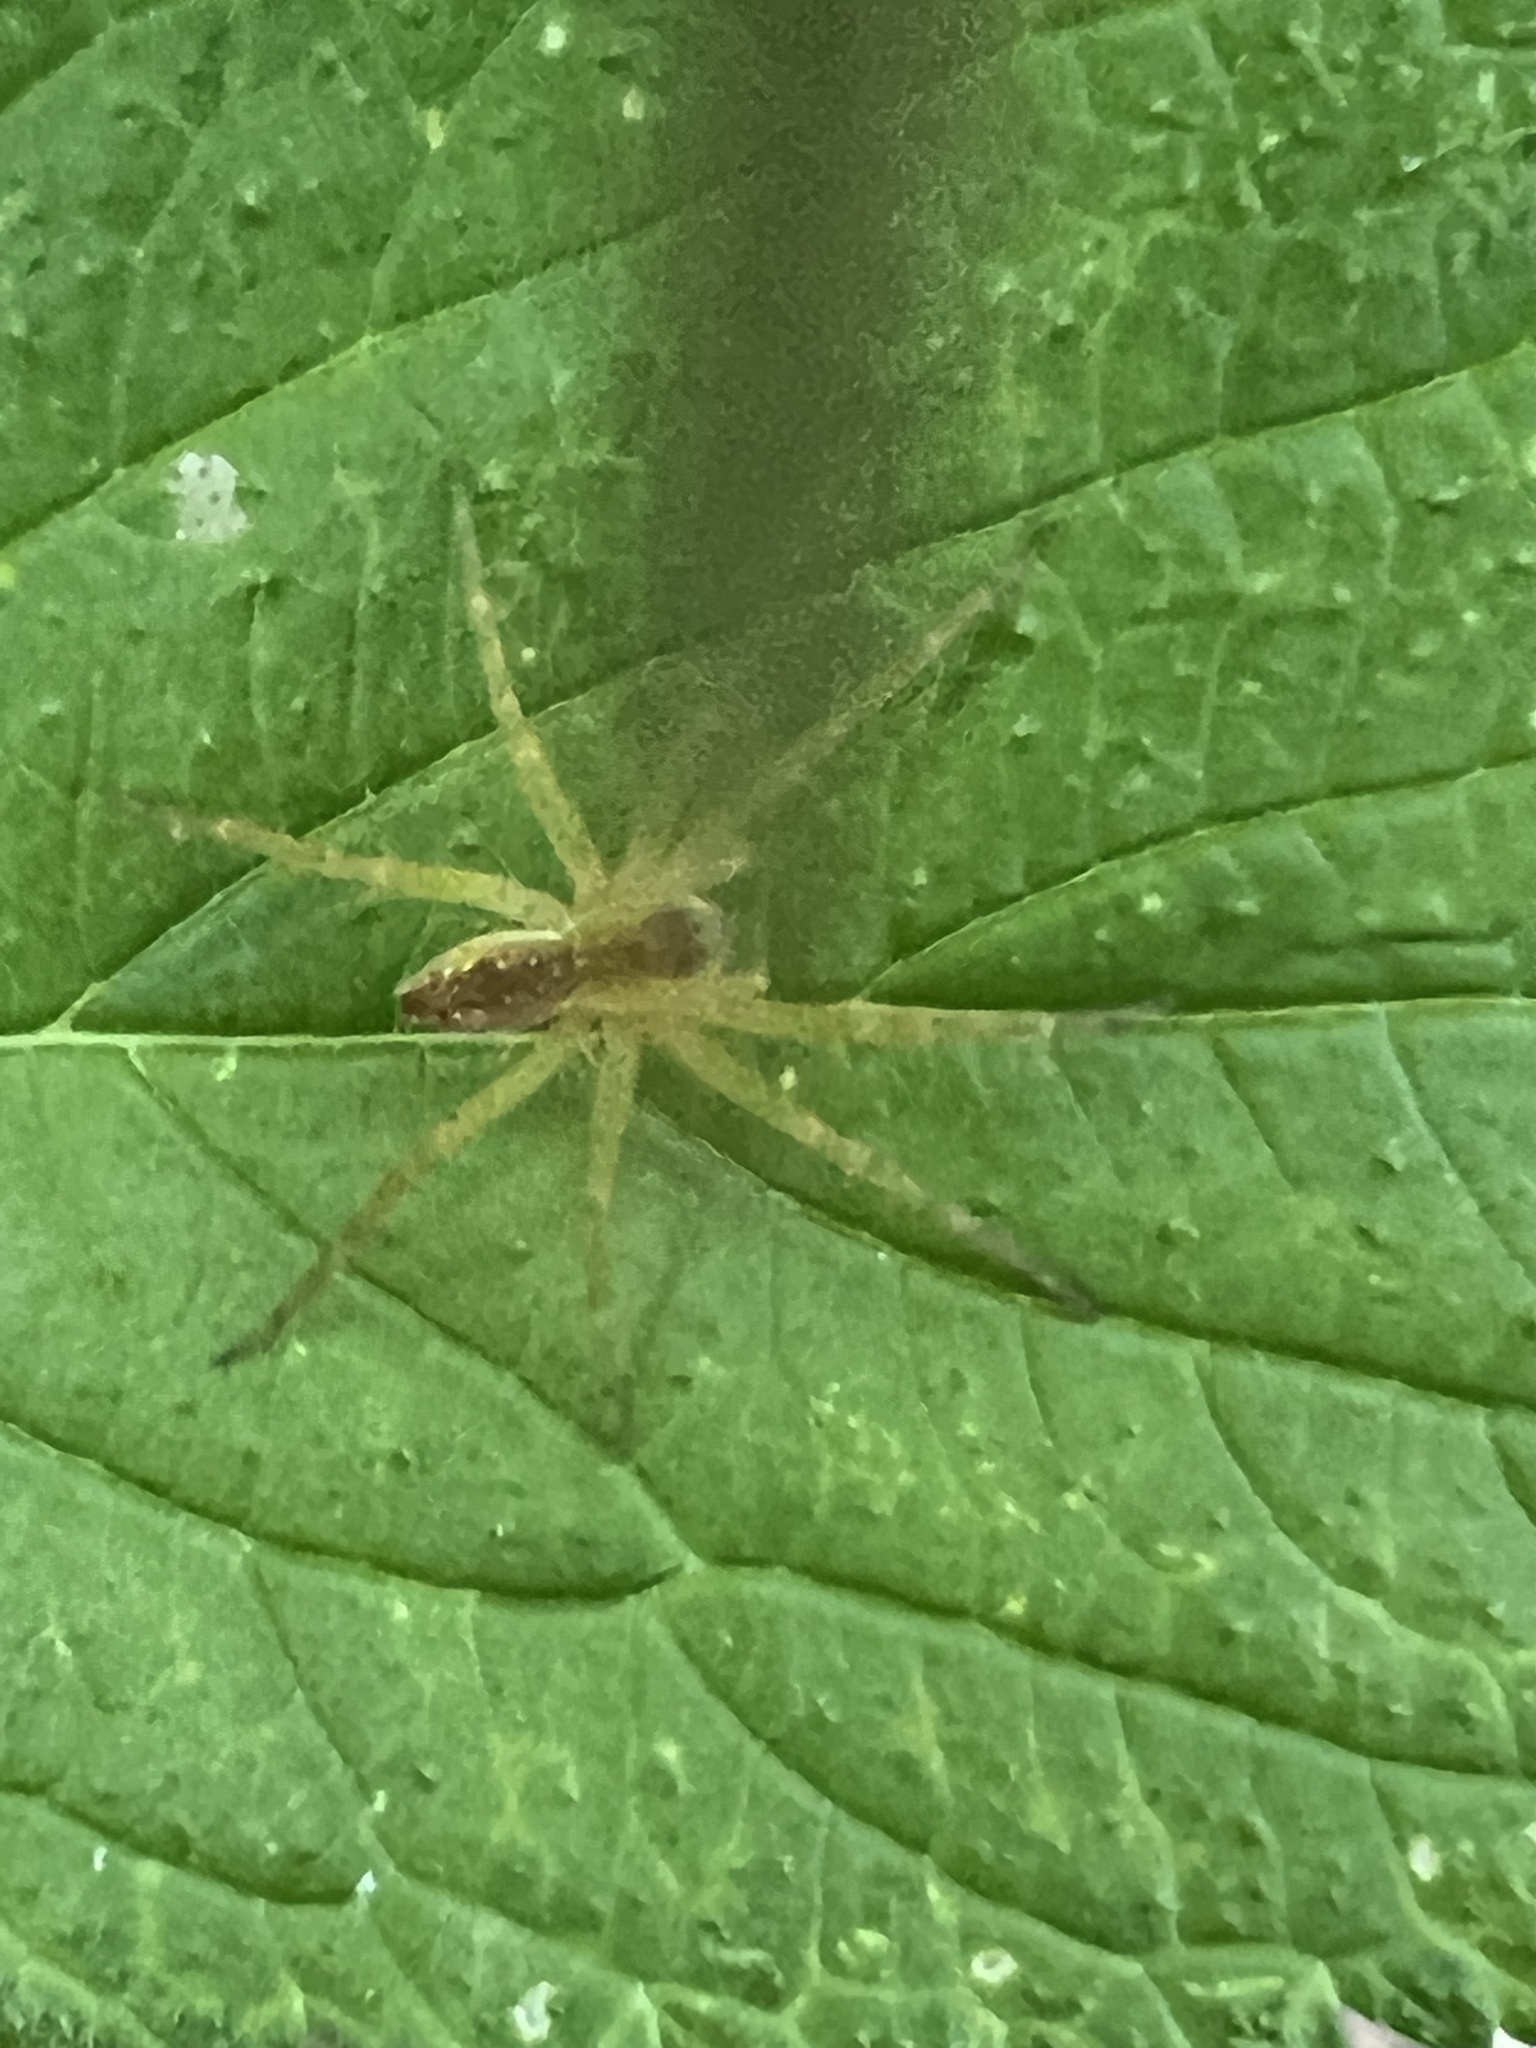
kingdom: Animalia
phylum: Arthropoda
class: Arachnida
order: Araneae
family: Pisauridae
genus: Pisaurina
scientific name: Pisaurina mira
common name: American nursery web spider
